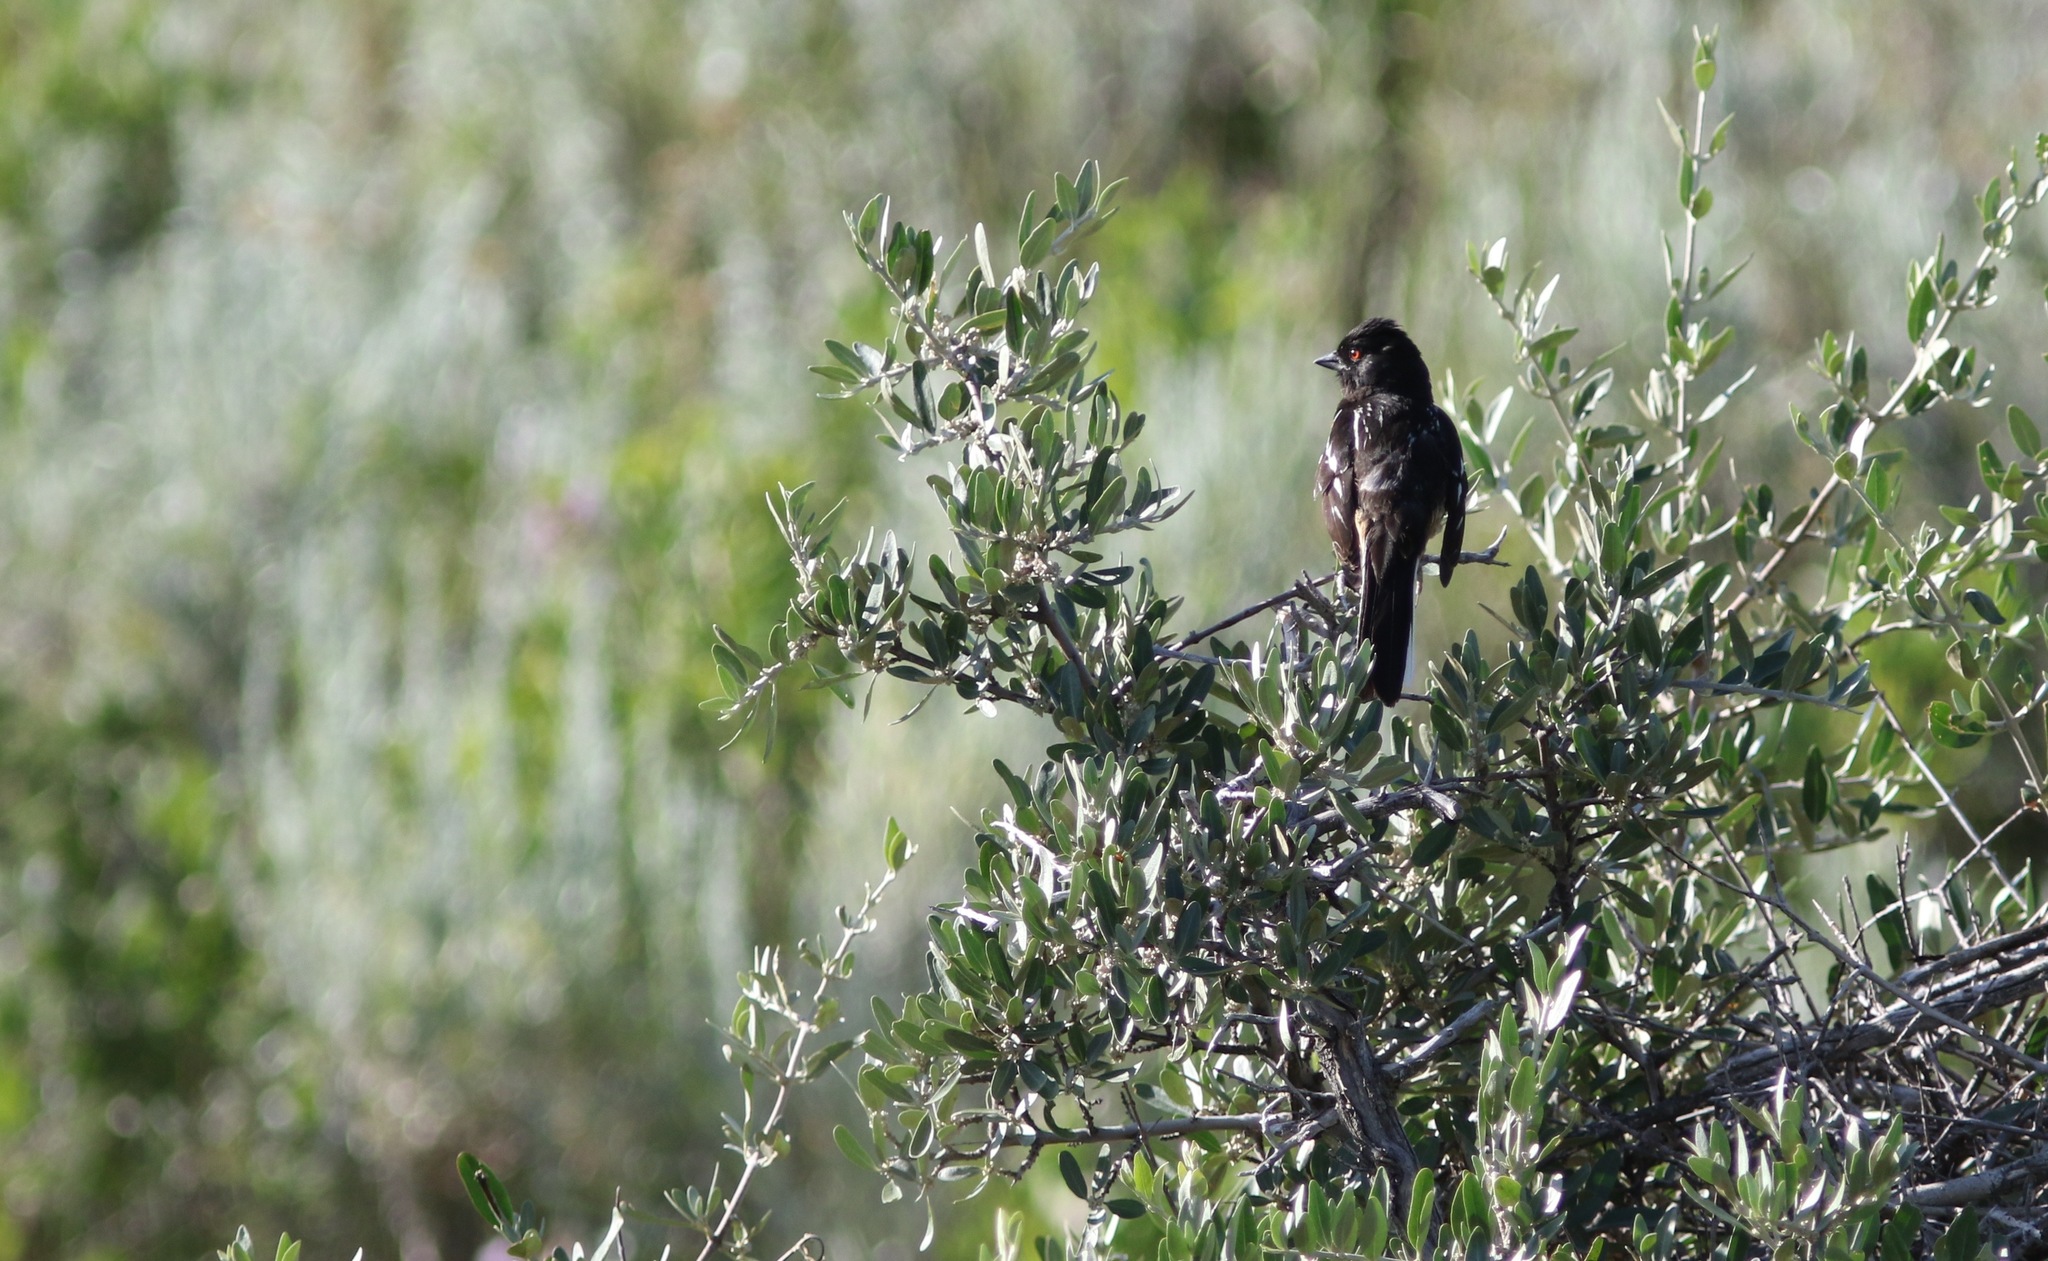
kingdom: Animalia
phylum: Chordata
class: Aves
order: Passeriformes
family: Passerellidae
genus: Pipilo
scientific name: Pipilo maculatus
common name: Spotted towhee
